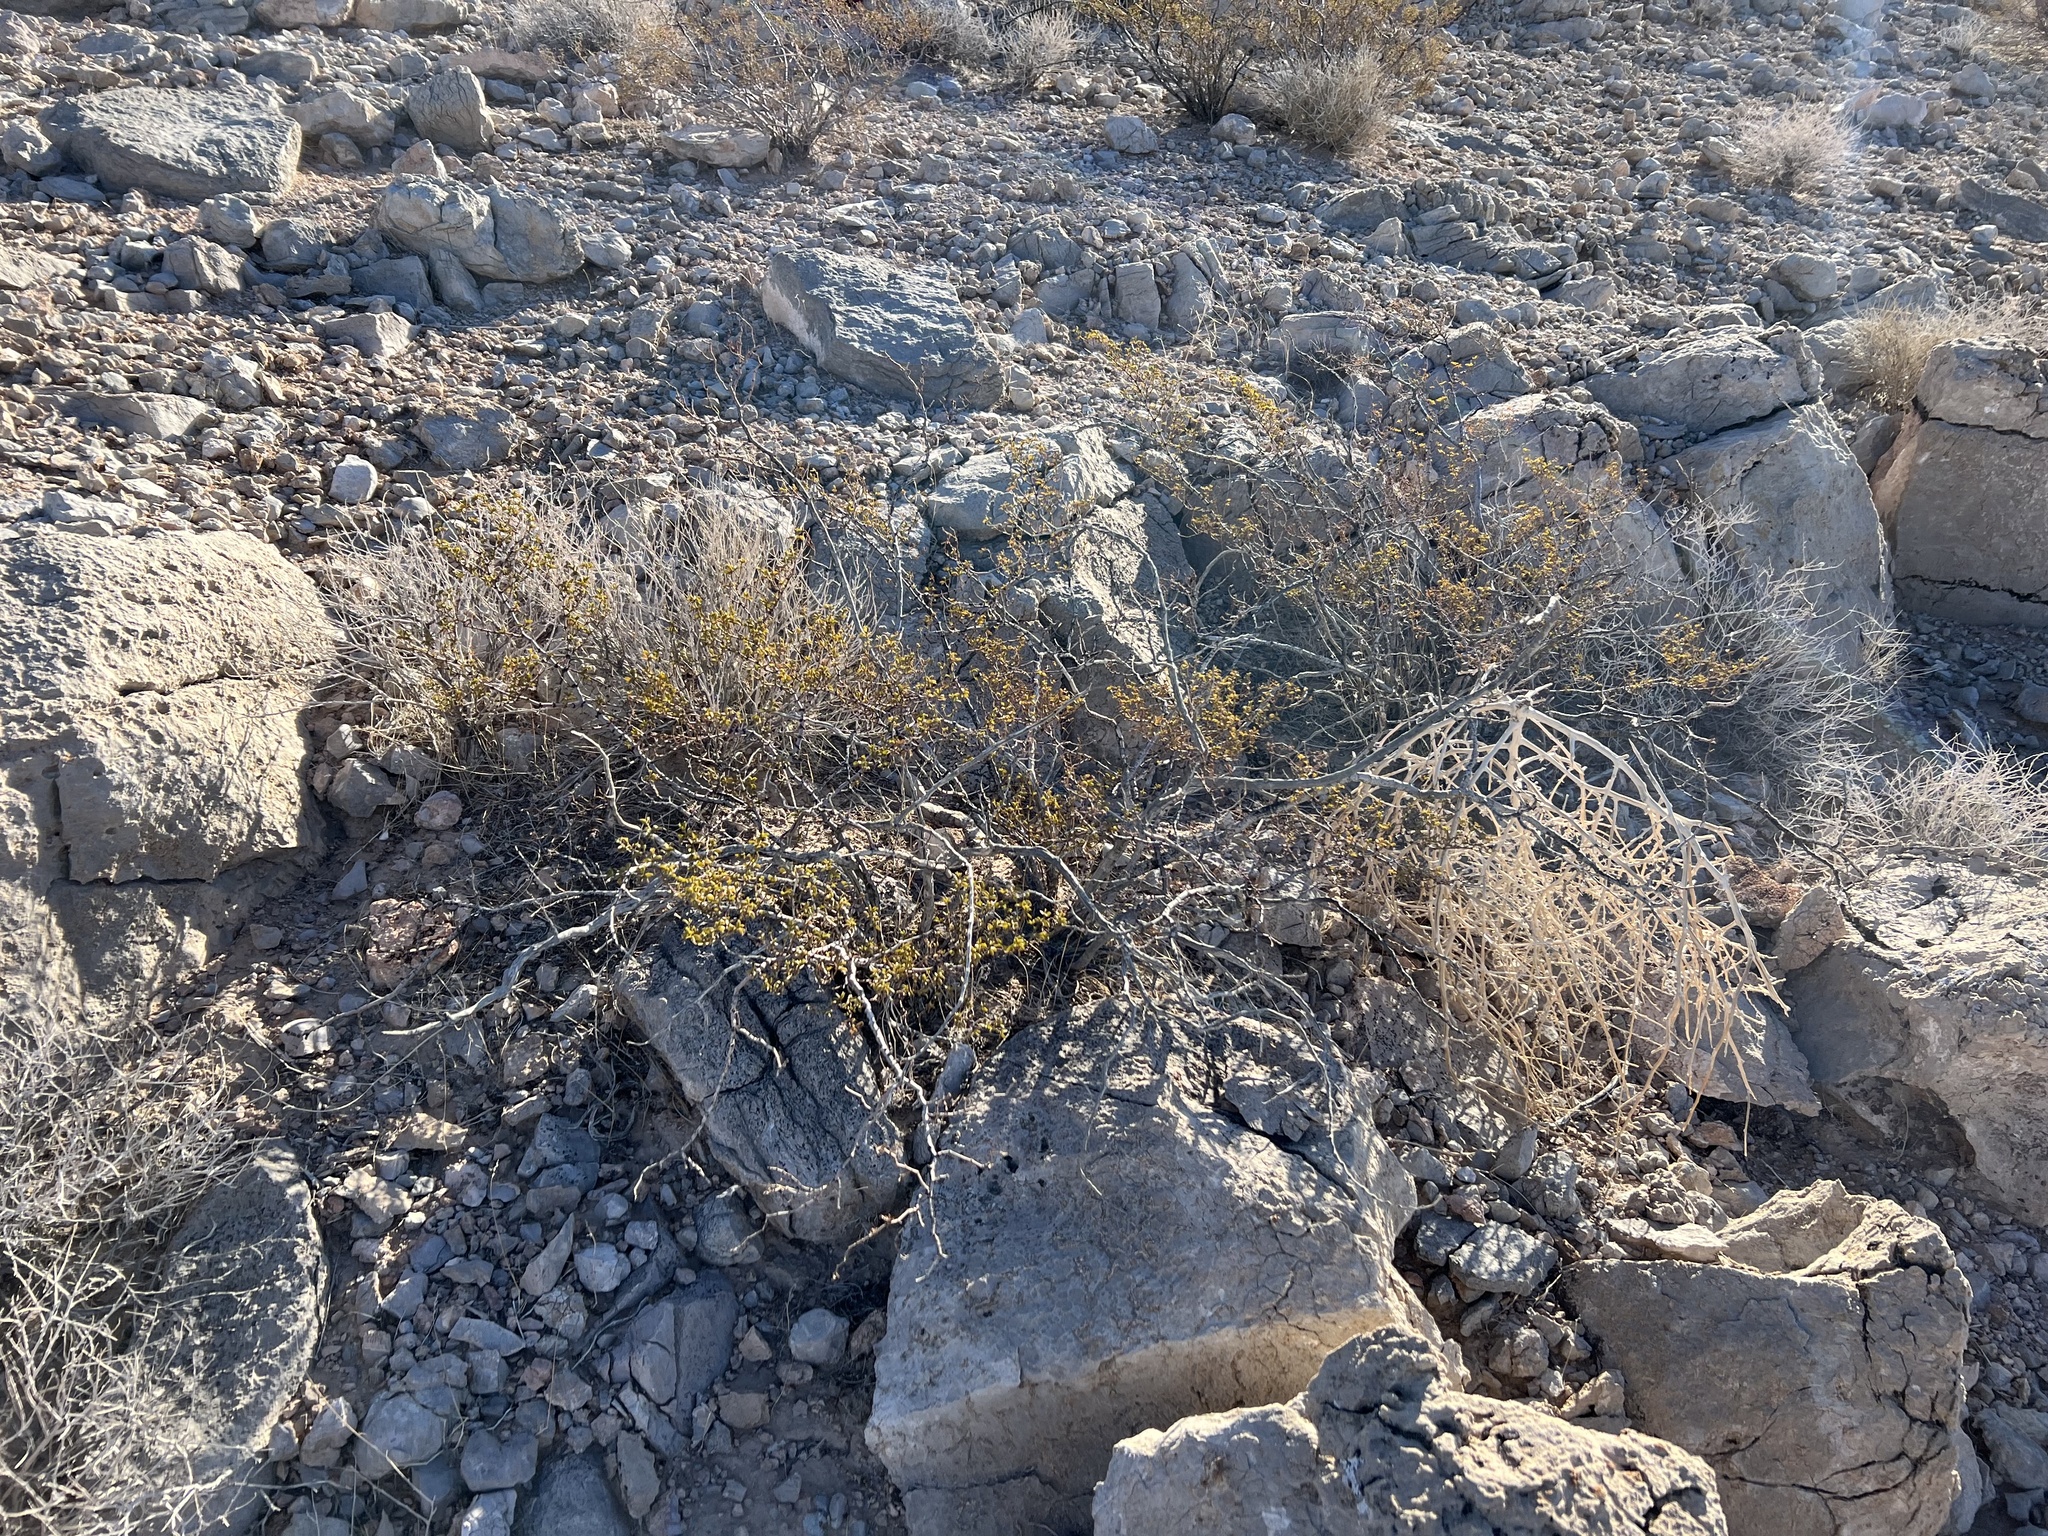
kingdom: Plantae
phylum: Tracheophyta
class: Magnoliopsida
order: Zygophyllales
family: Zygophyllaceae
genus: Larrea
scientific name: Larrea tridentata
